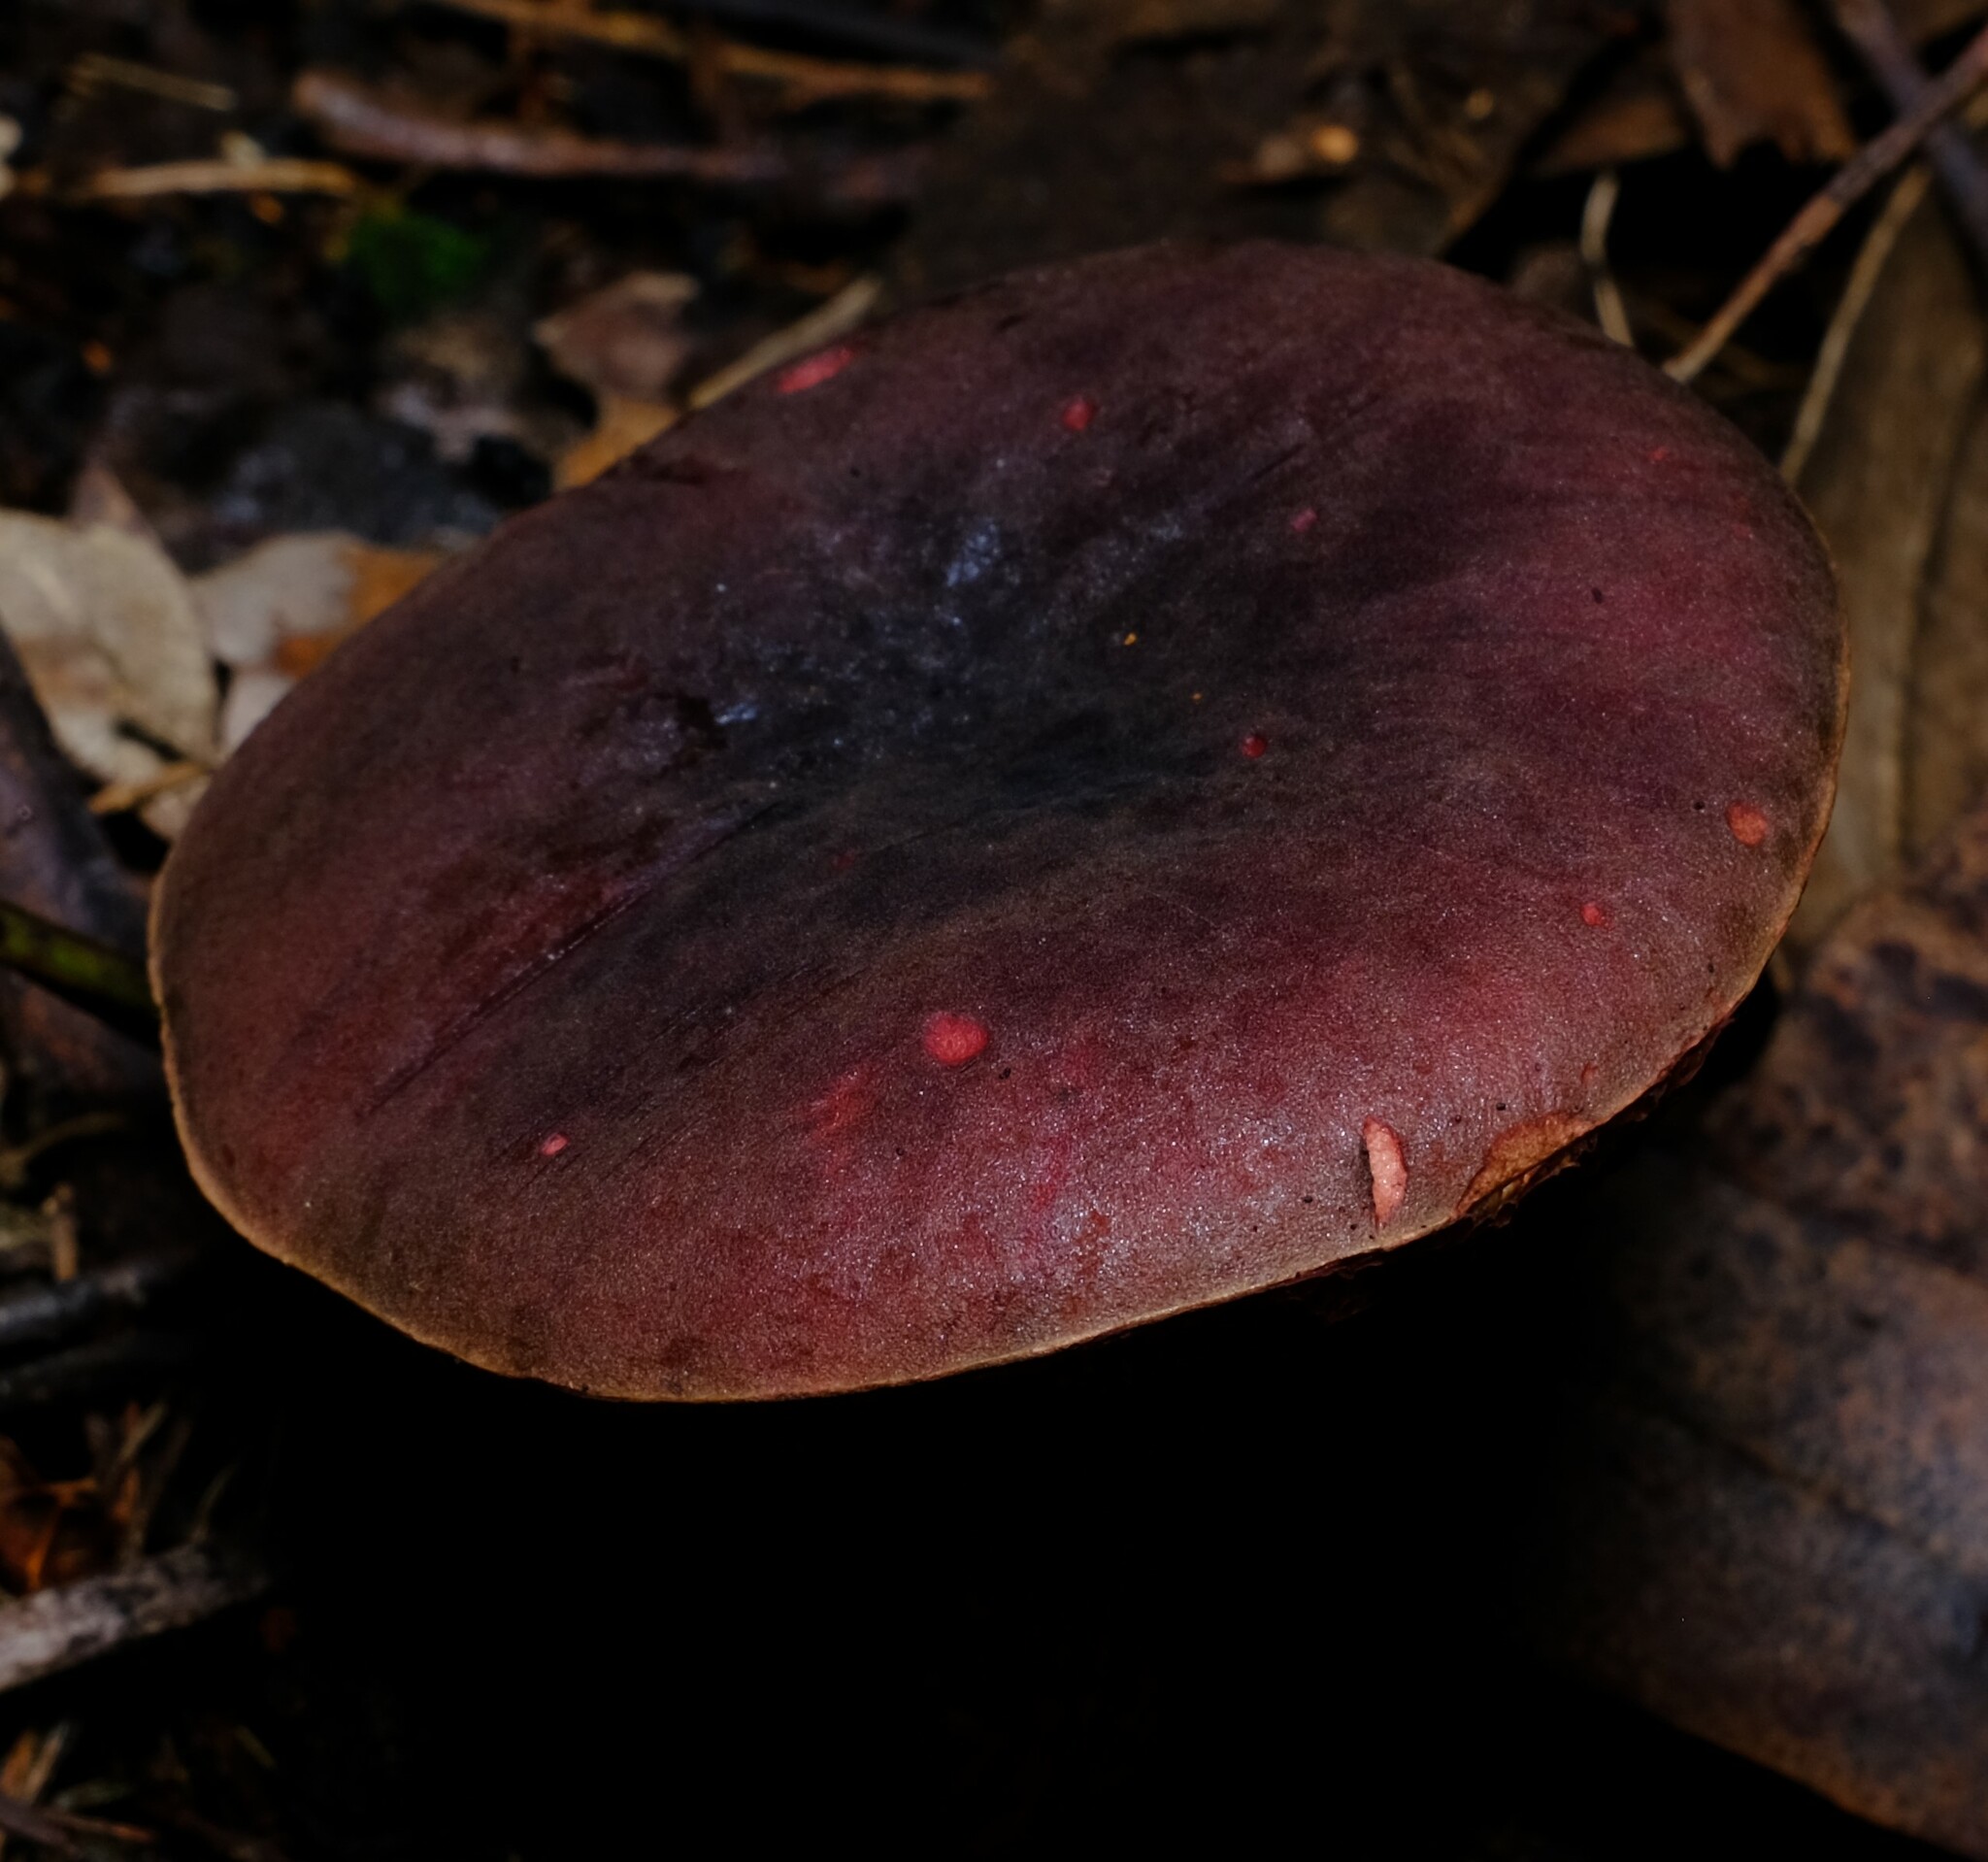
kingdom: Fungi
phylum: Basidiomycota
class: Agaricomycetes
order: Boletales
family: Boletaceae
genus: Boletus
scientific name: Boletus barragensis
